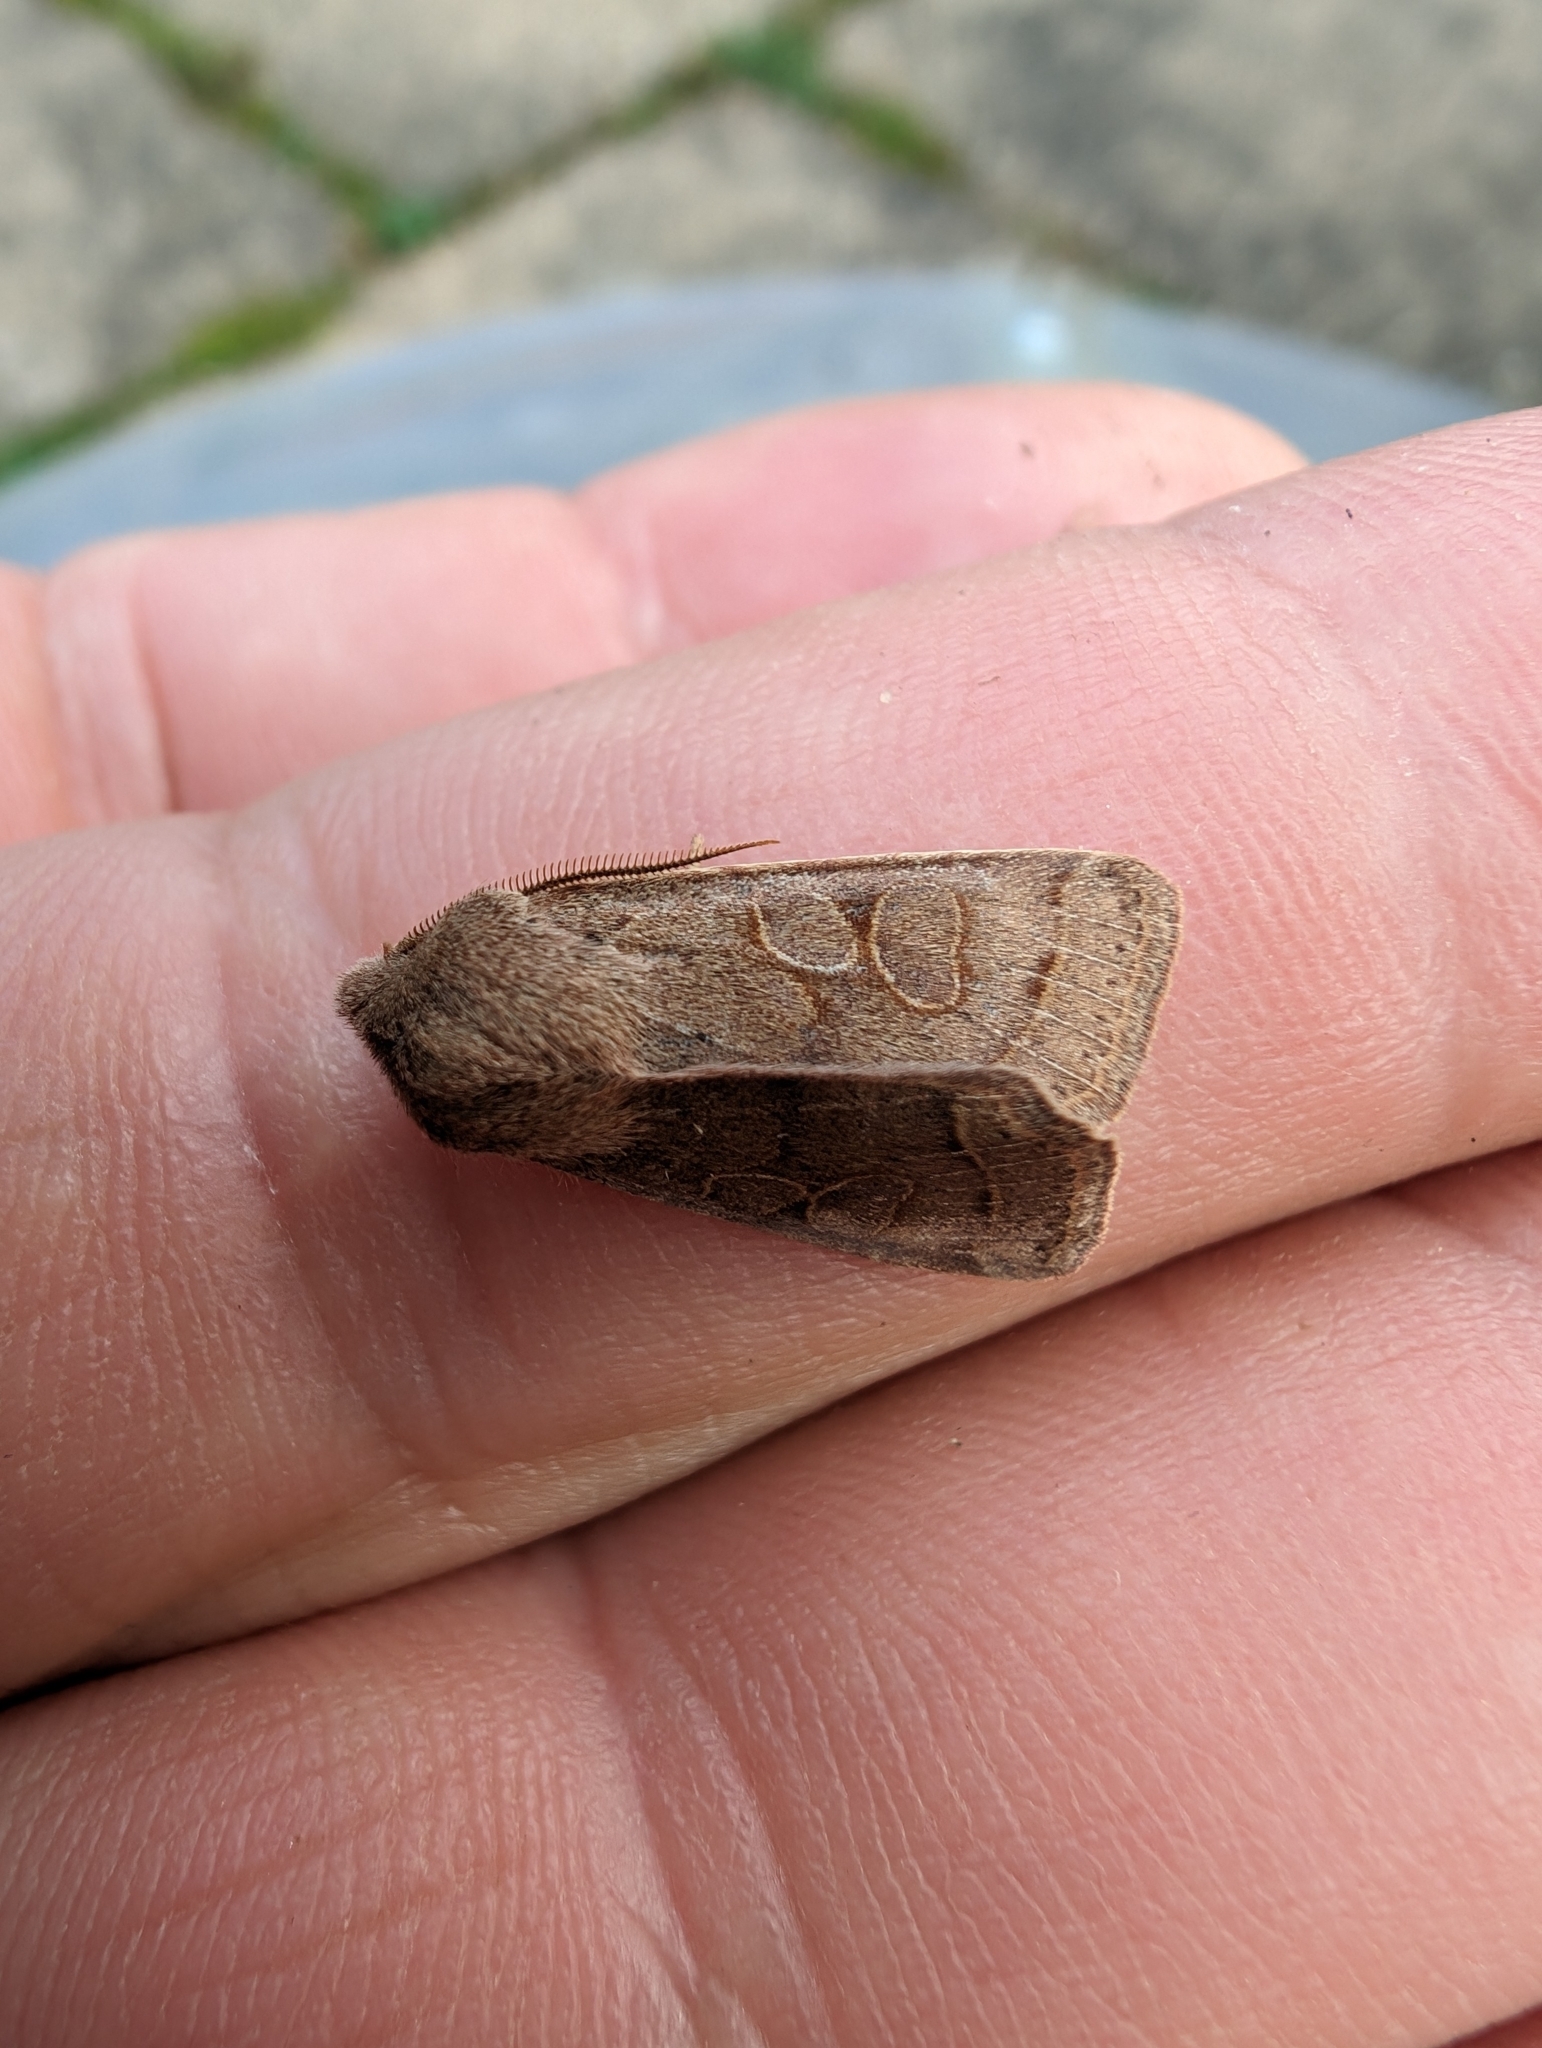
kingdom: Animalia
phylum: Arthropoda
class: Insecta
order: Lepidoptera
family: Noctuidae
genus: Orthosia
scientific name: Orthosia cerasi
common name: Common quaker
